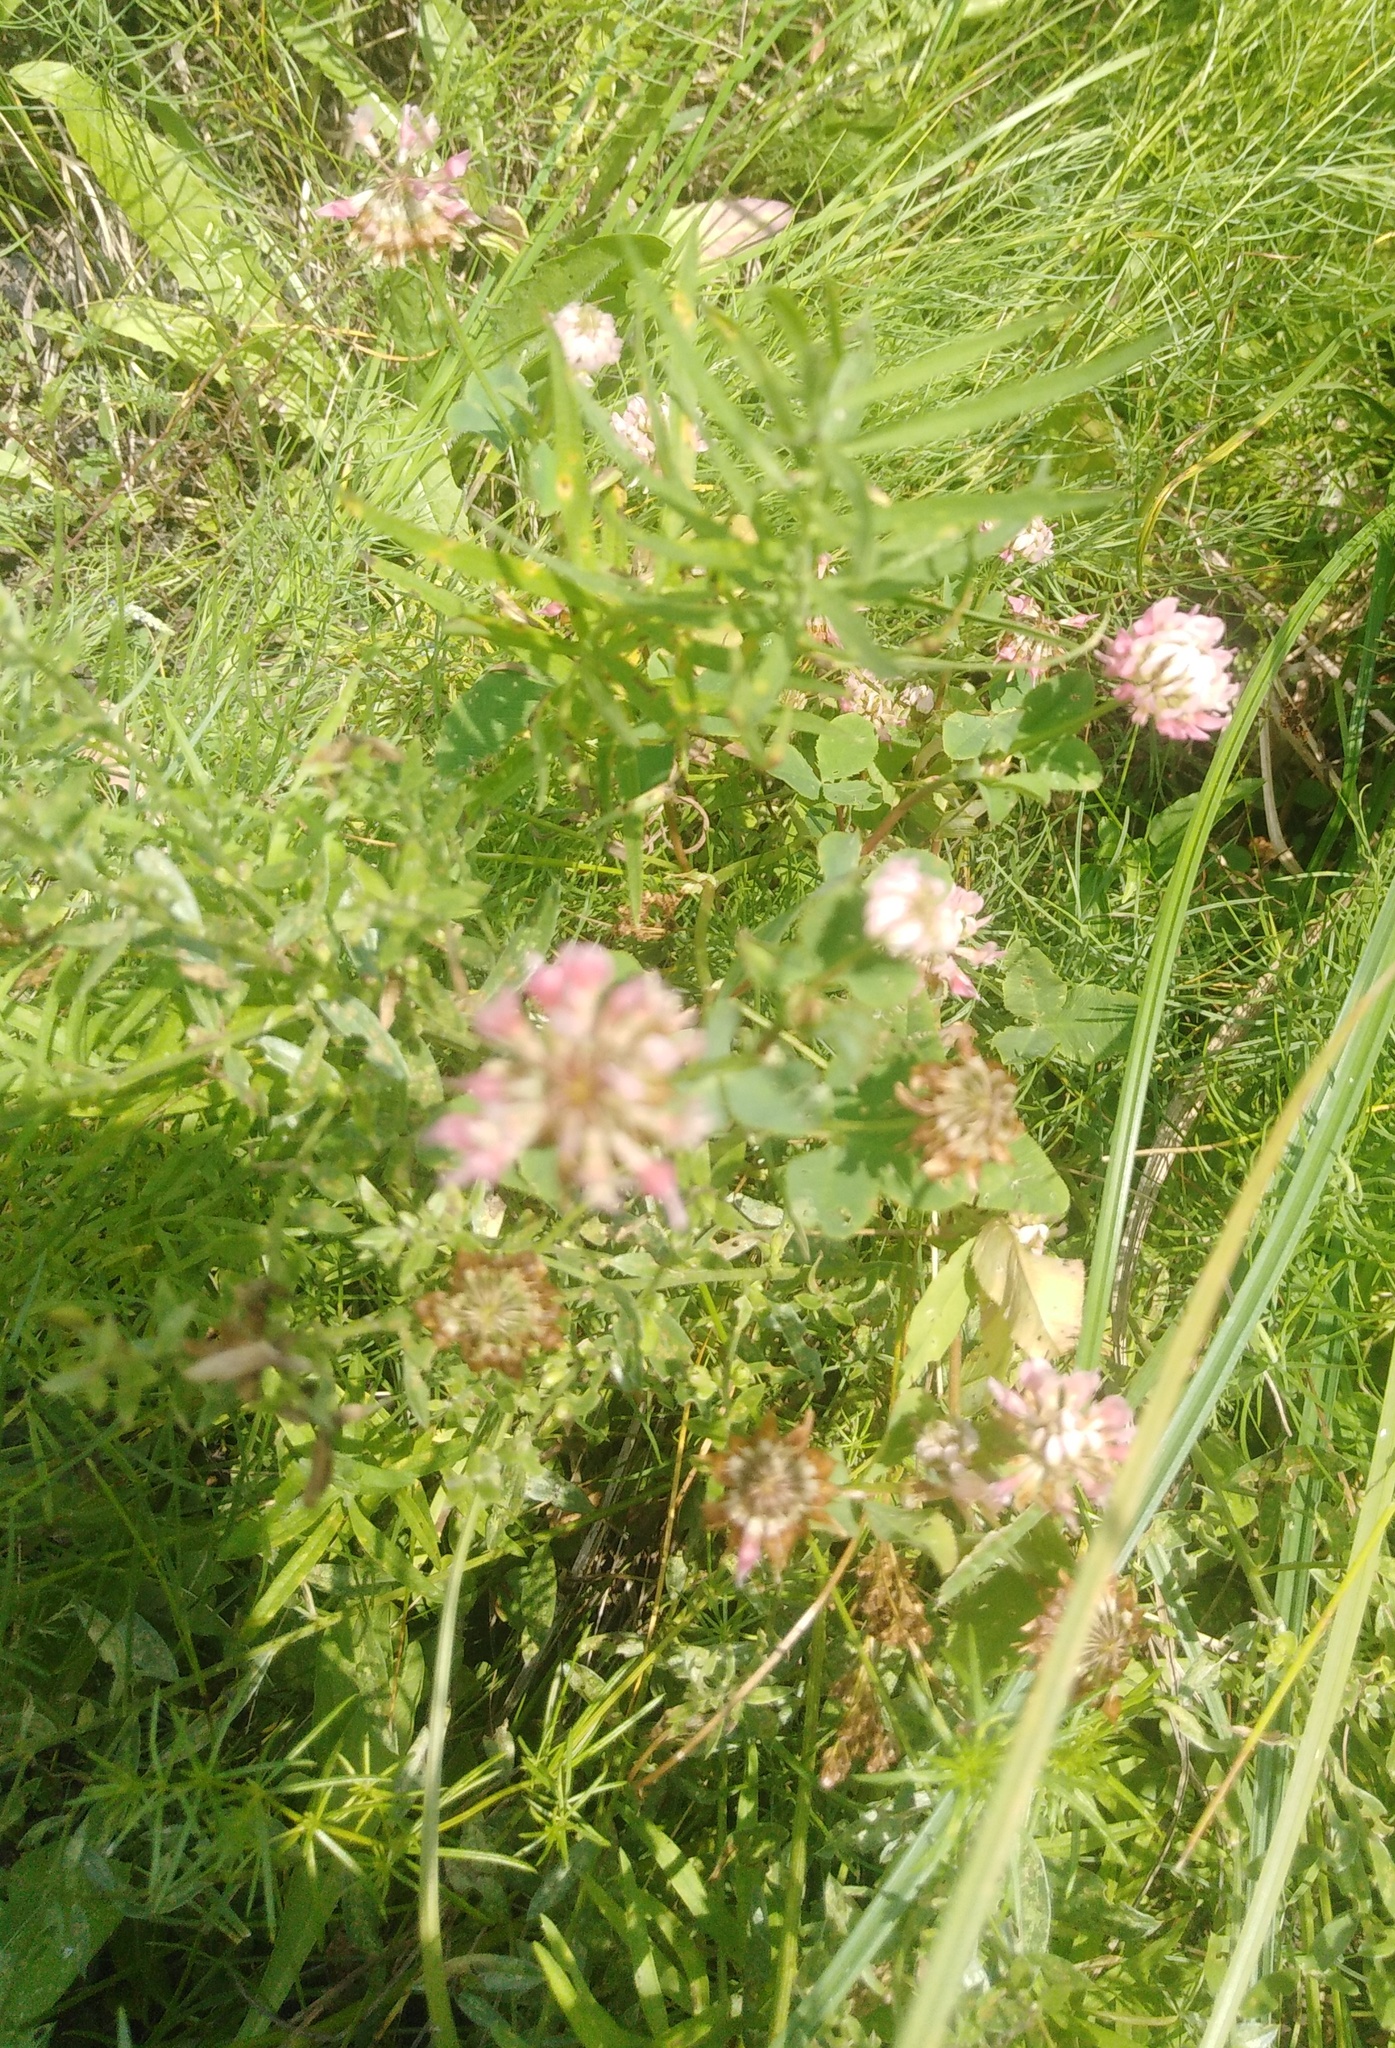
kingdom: Plantae
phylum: Tracheophyta
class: Magnoliopsida
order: Fabales
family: Fabaceae
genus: Trifolium
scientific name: Trifolium hybridum
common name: Alsike clover
